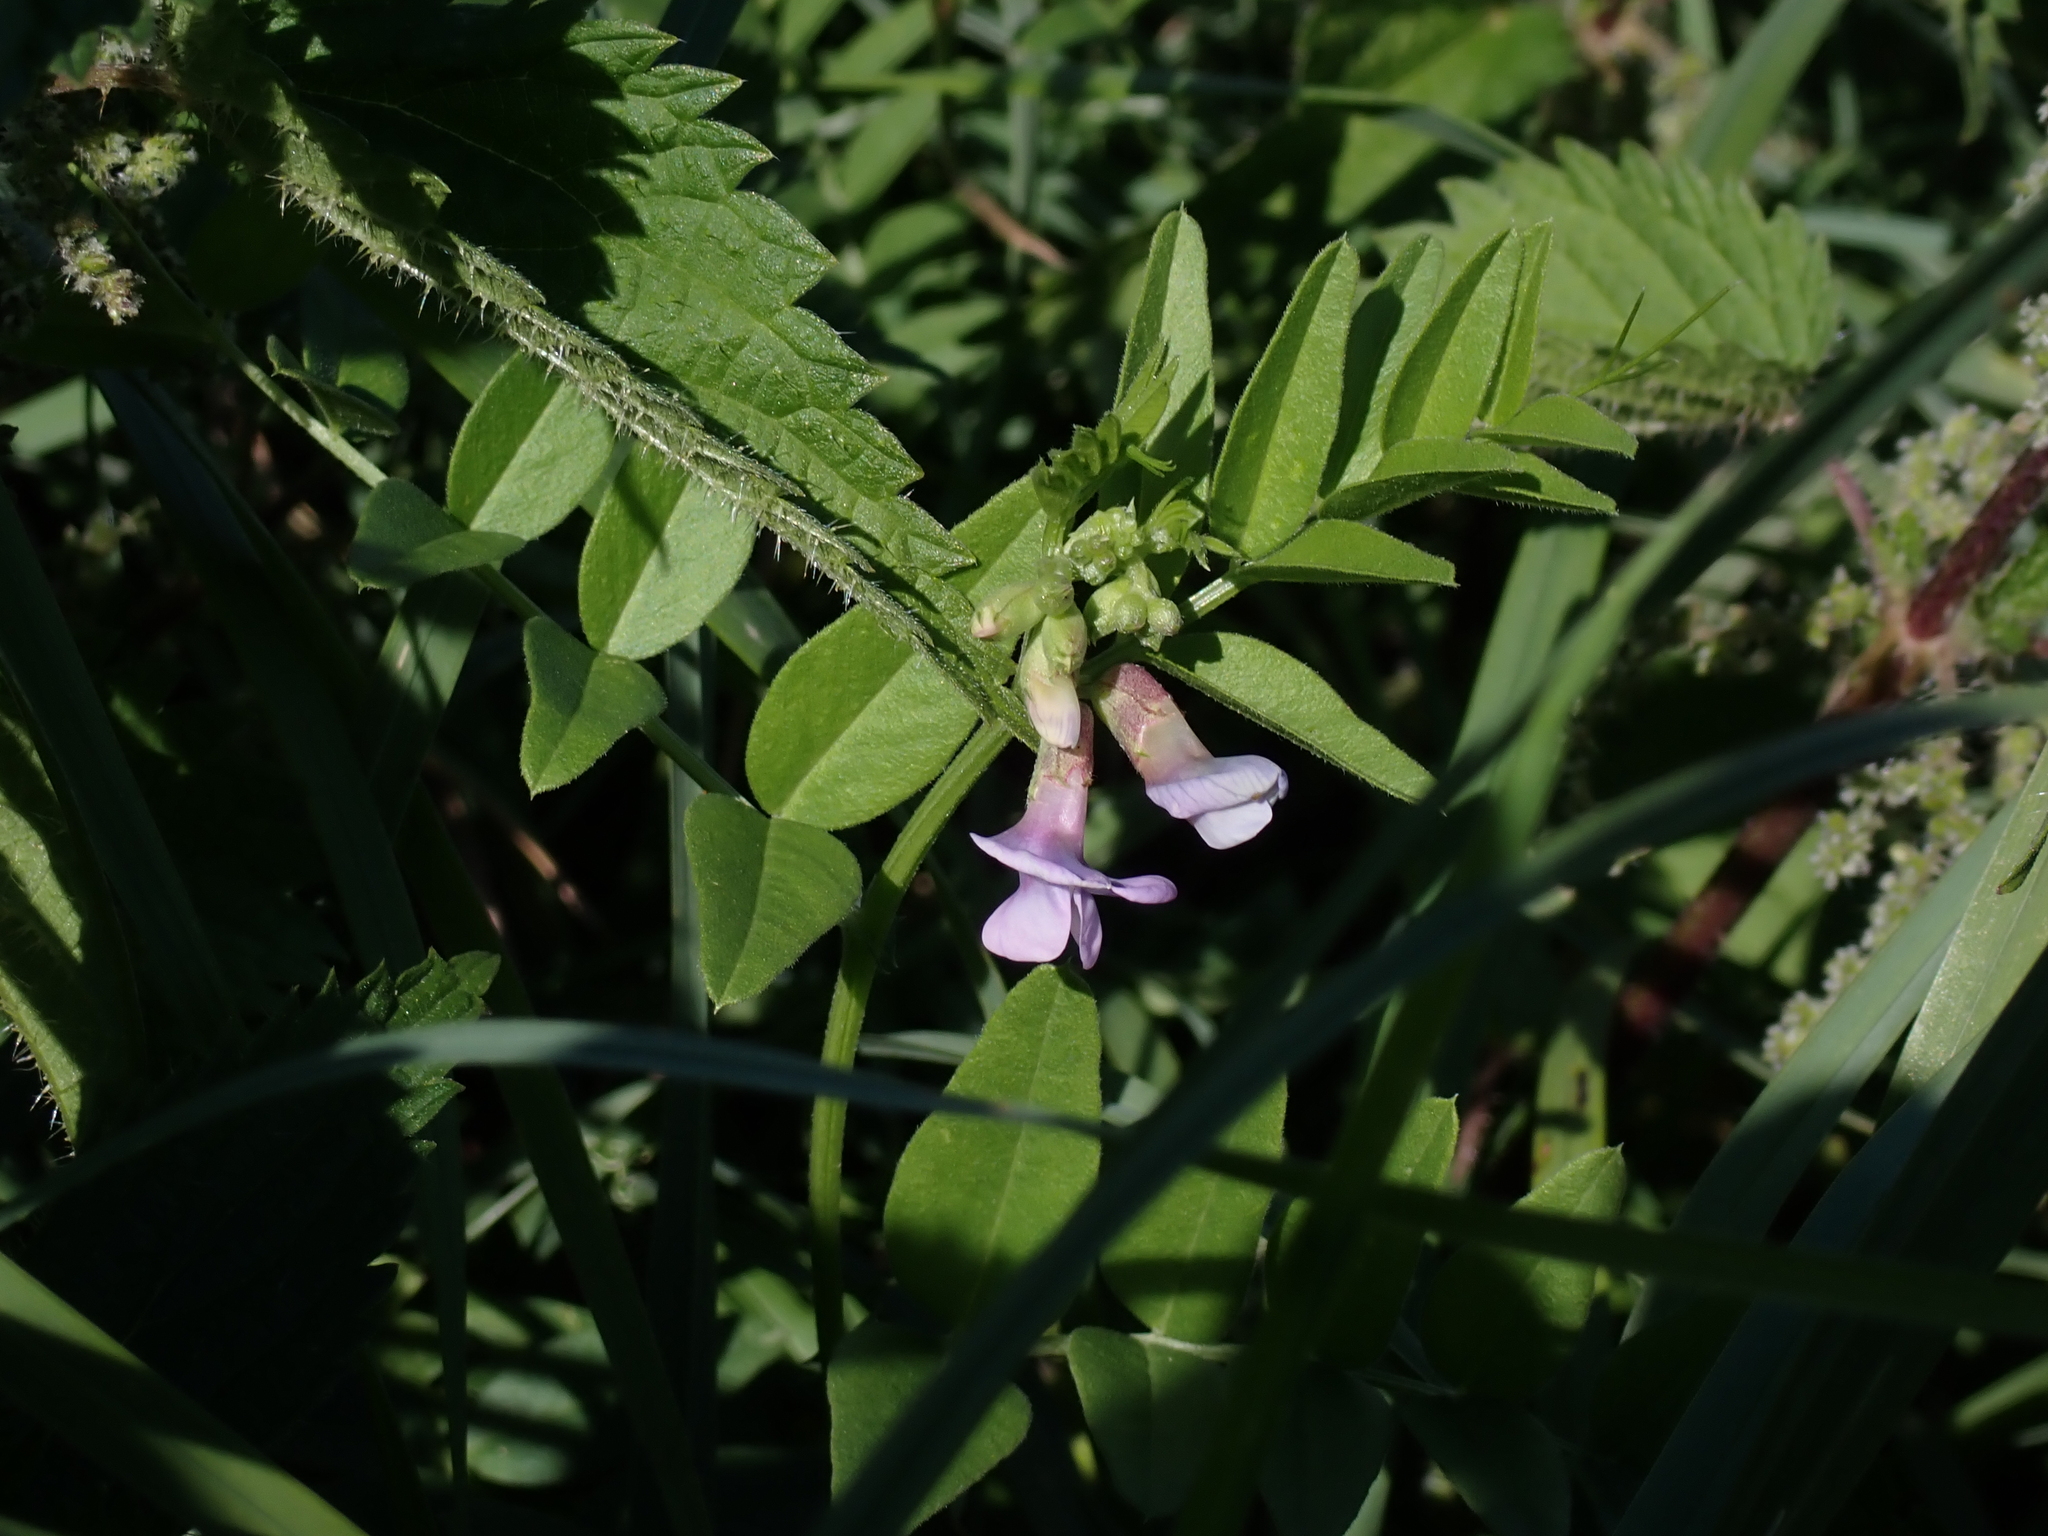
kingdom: Plantae
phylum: Tracheophyta
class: Magnoliopsida
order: Fabales
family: Fabaceae
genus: Vicia
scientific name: Vicia sepium
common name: Bush vetch
